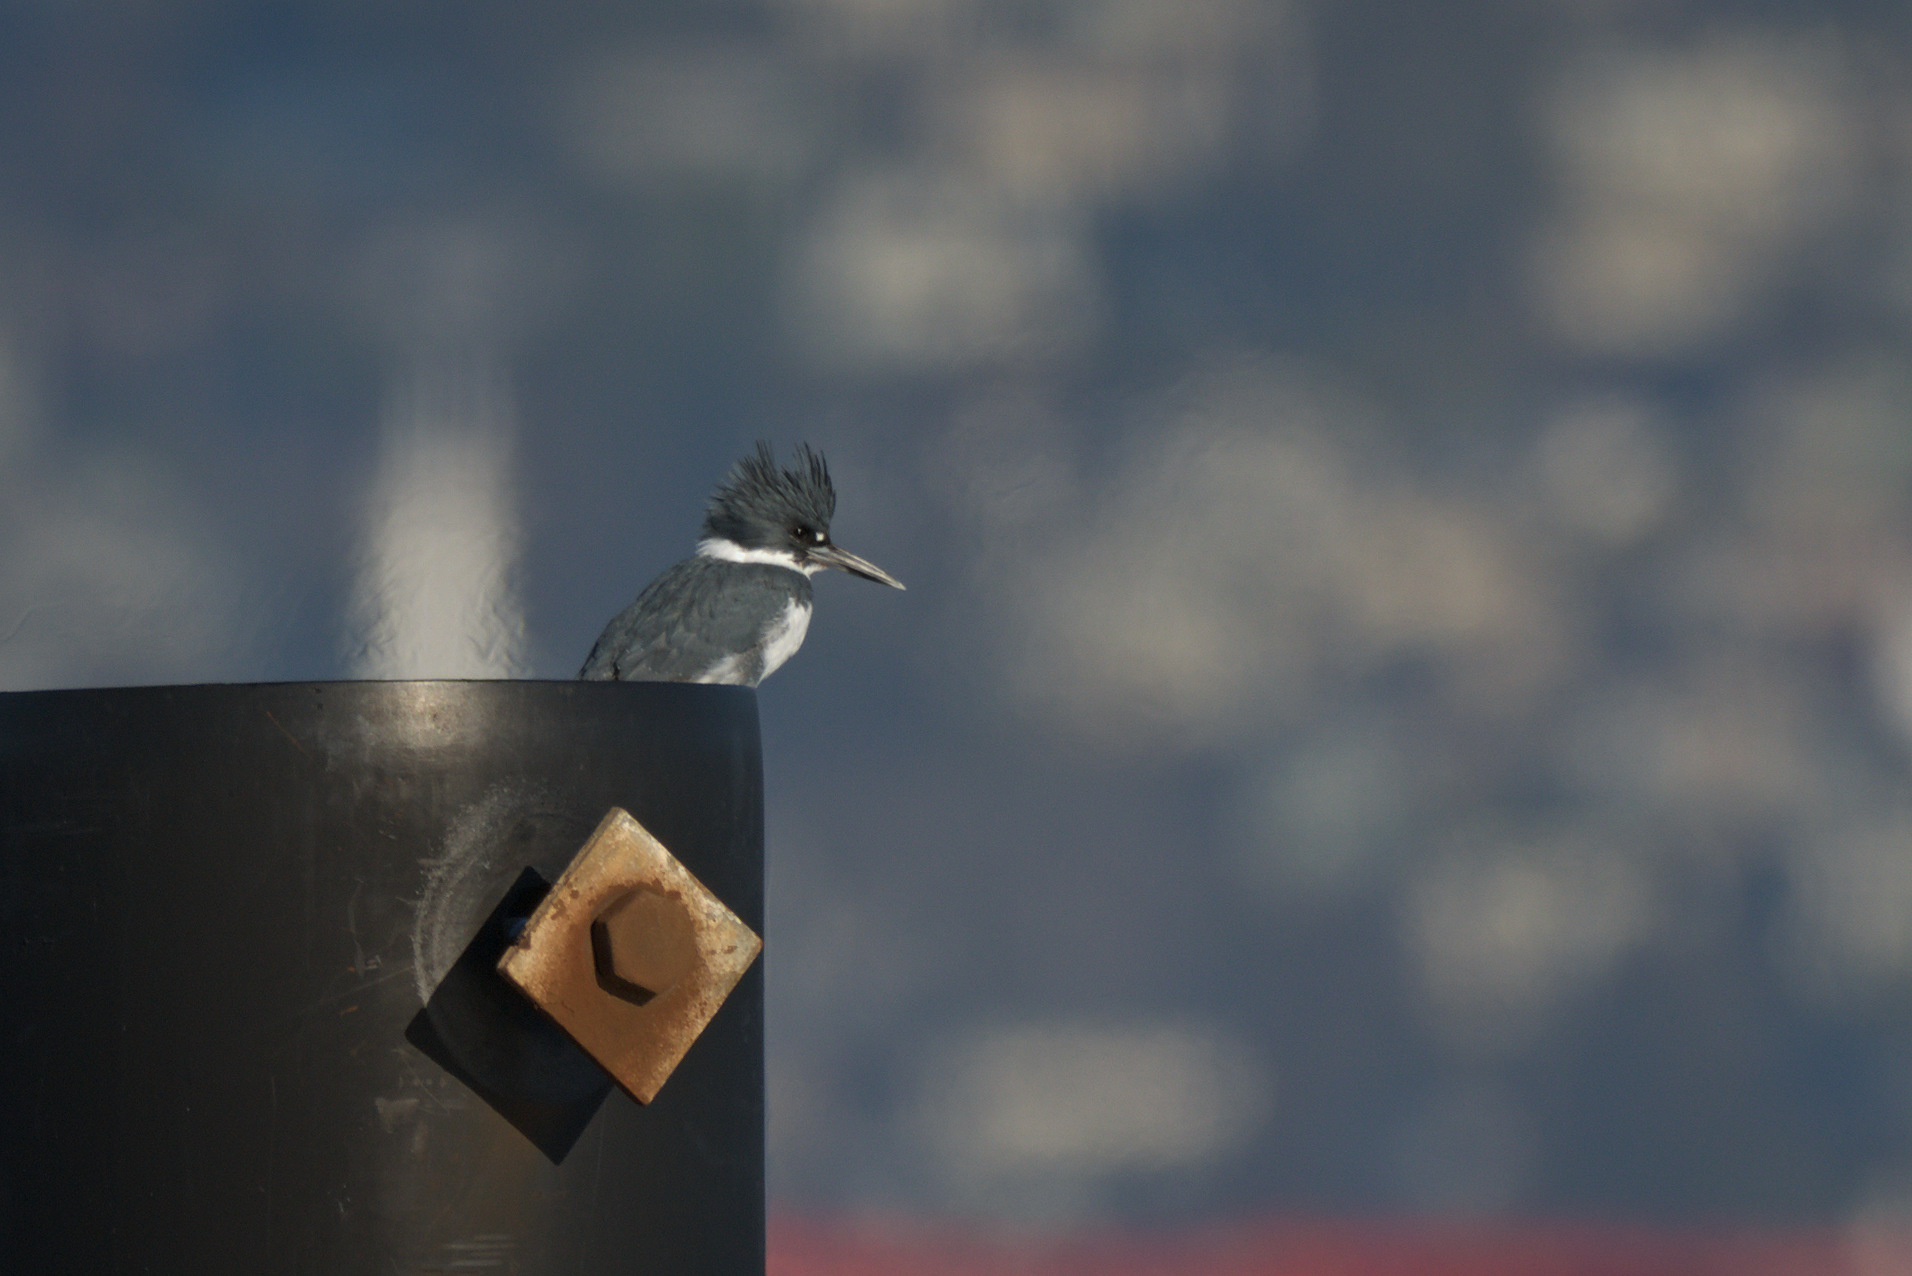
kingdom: Animalia
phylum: Chordata
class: Aves
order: Coraciiformes
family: Alcedinidae
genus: Megaceryle
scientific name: Megaceryle alcyon
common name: Belted kingfisher
